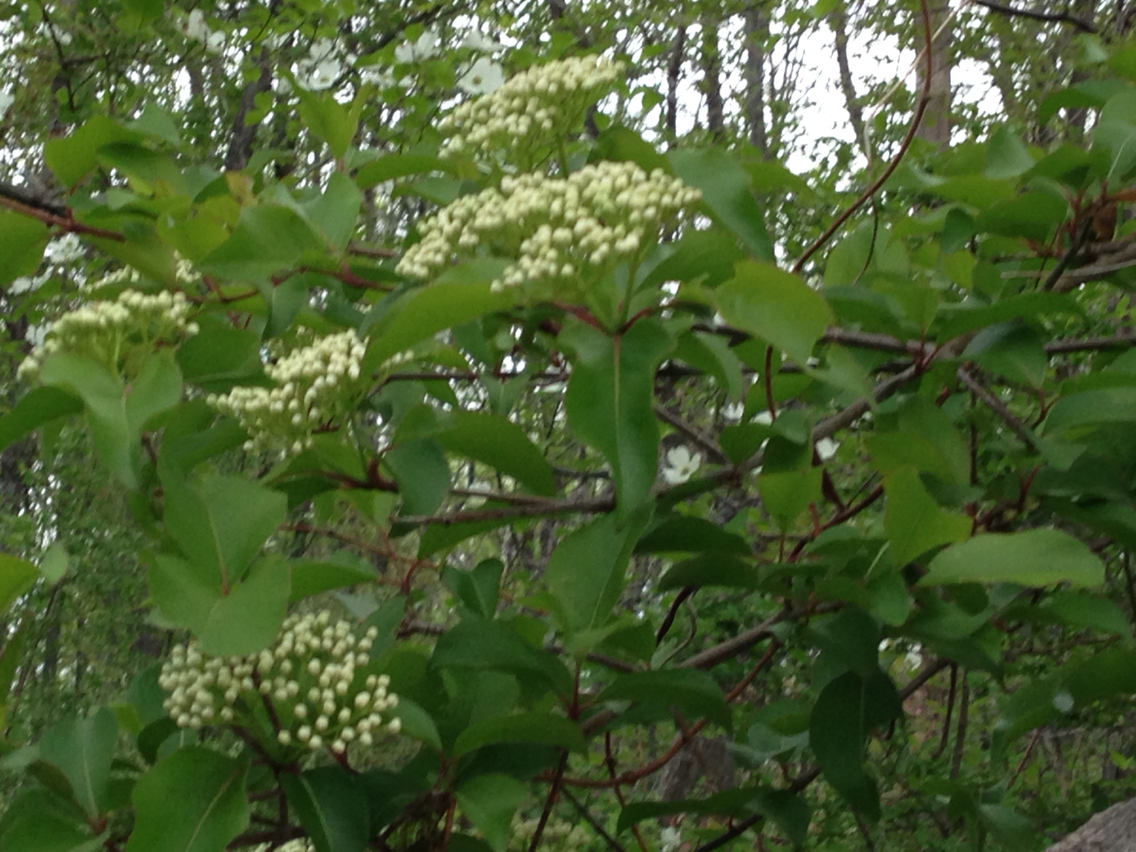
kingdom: Plantae
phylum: Tracheophyta
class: Magnoliopsida
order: Dipsacales
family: Viburnaceae
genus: Viburnum
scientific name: Viburnum prunifolium
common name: Black haw
